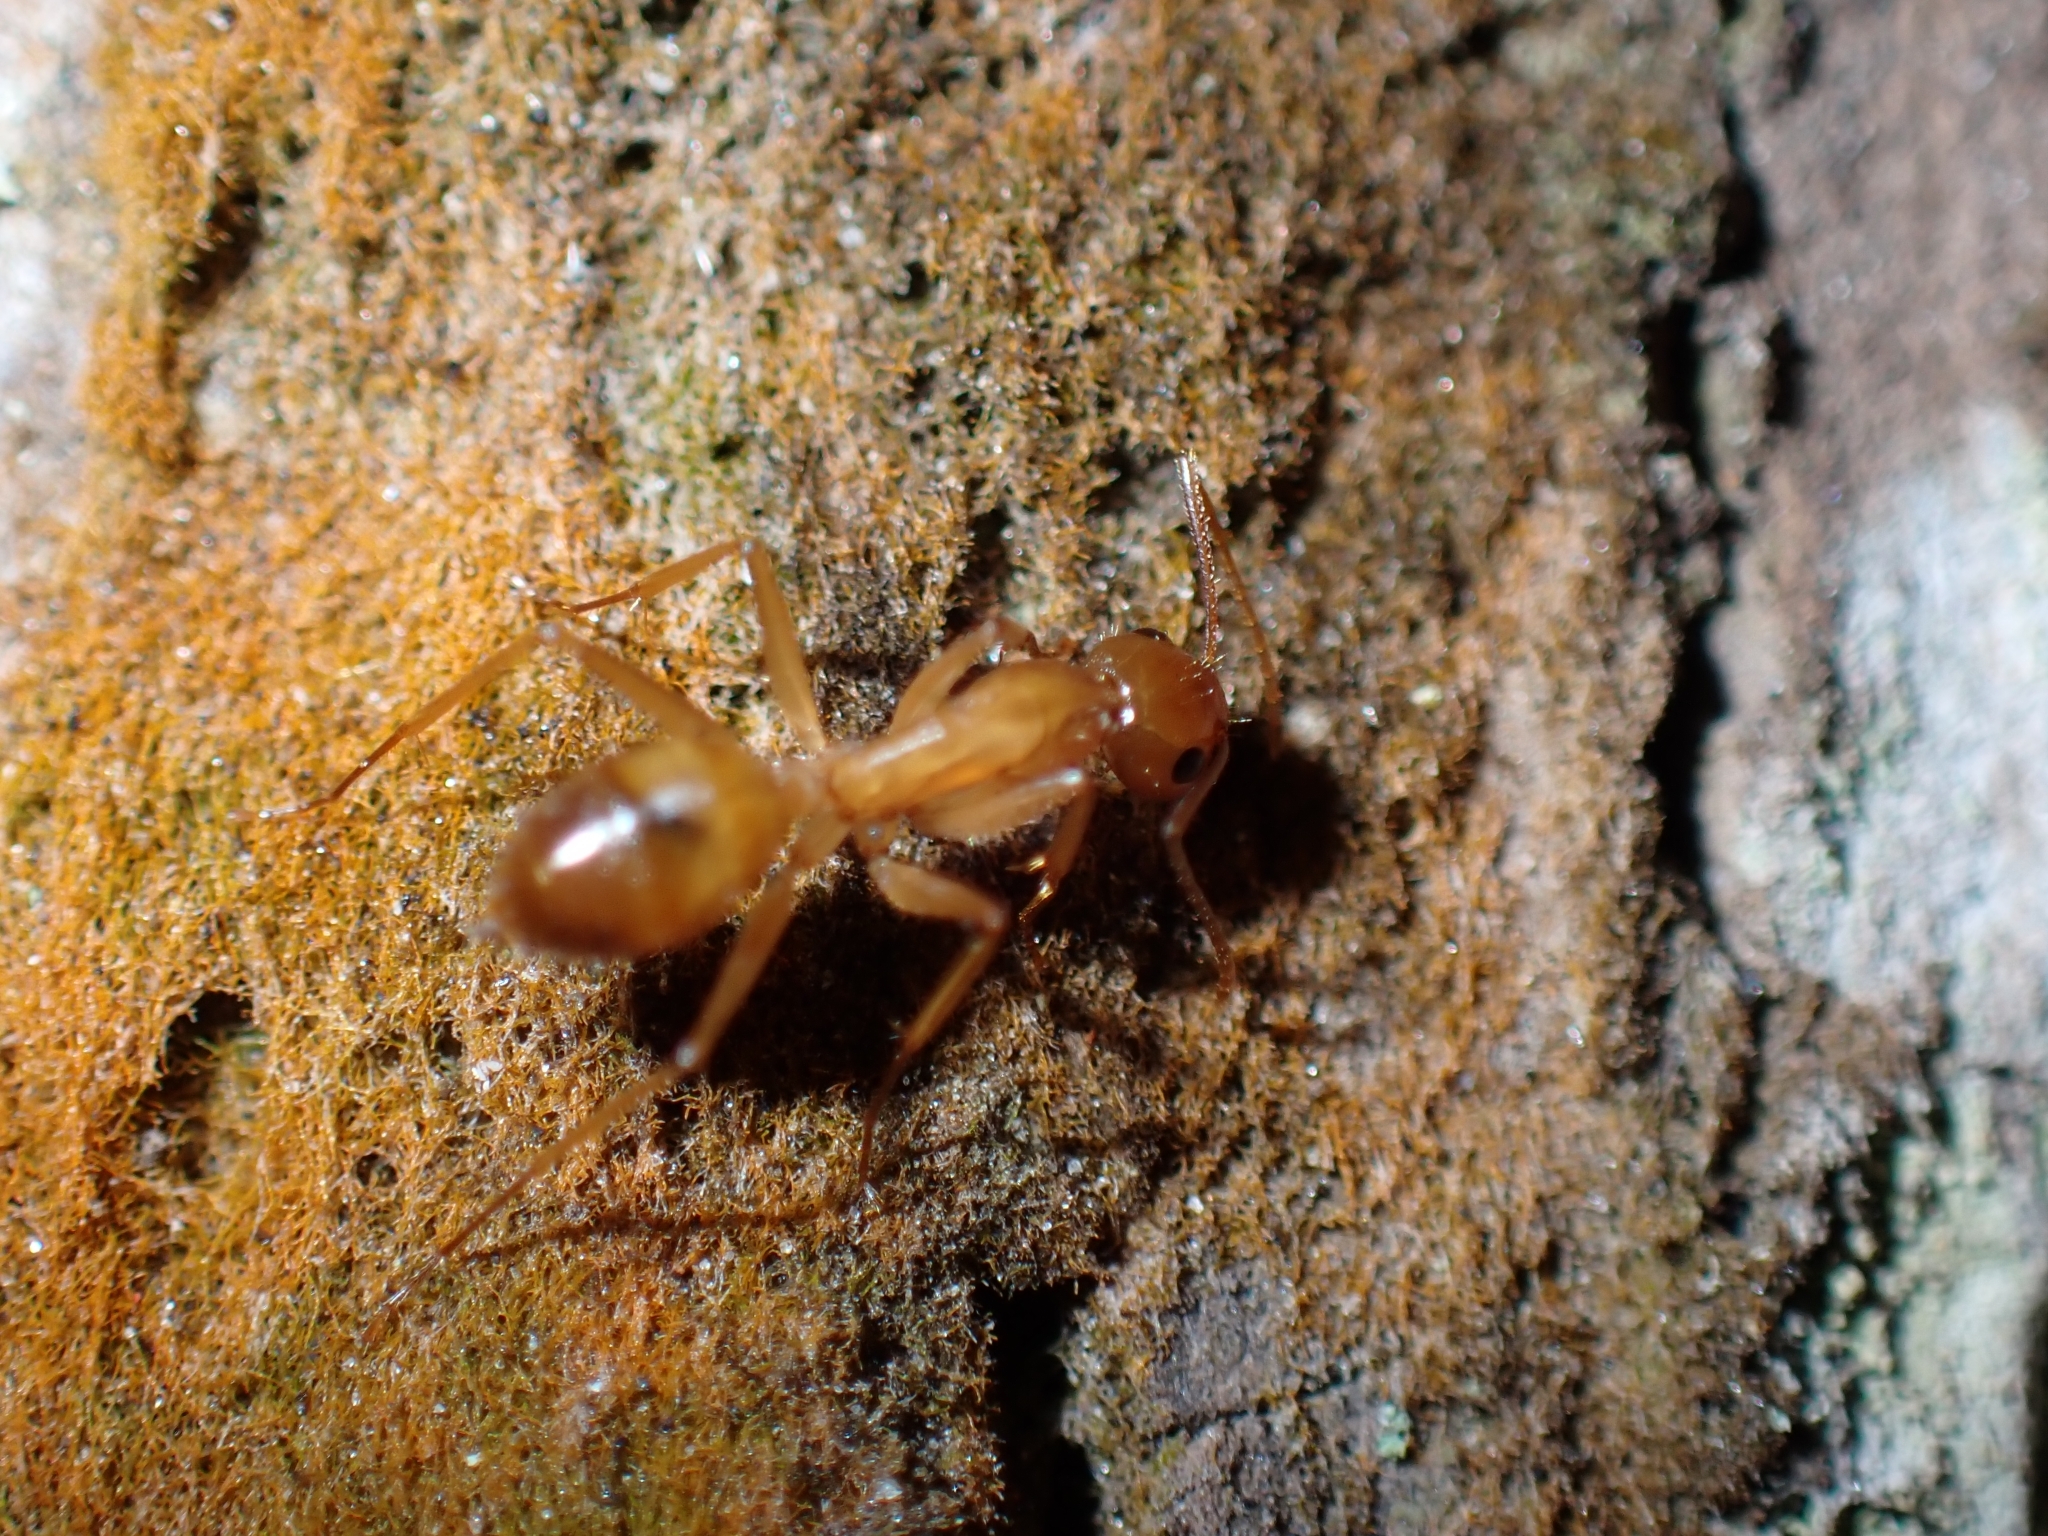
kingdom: Animalia
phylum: Arthropoda
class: Insecta
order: Hymenoptera
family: Formicidae
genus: Camponotus
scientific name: Camponotus chloroticus
